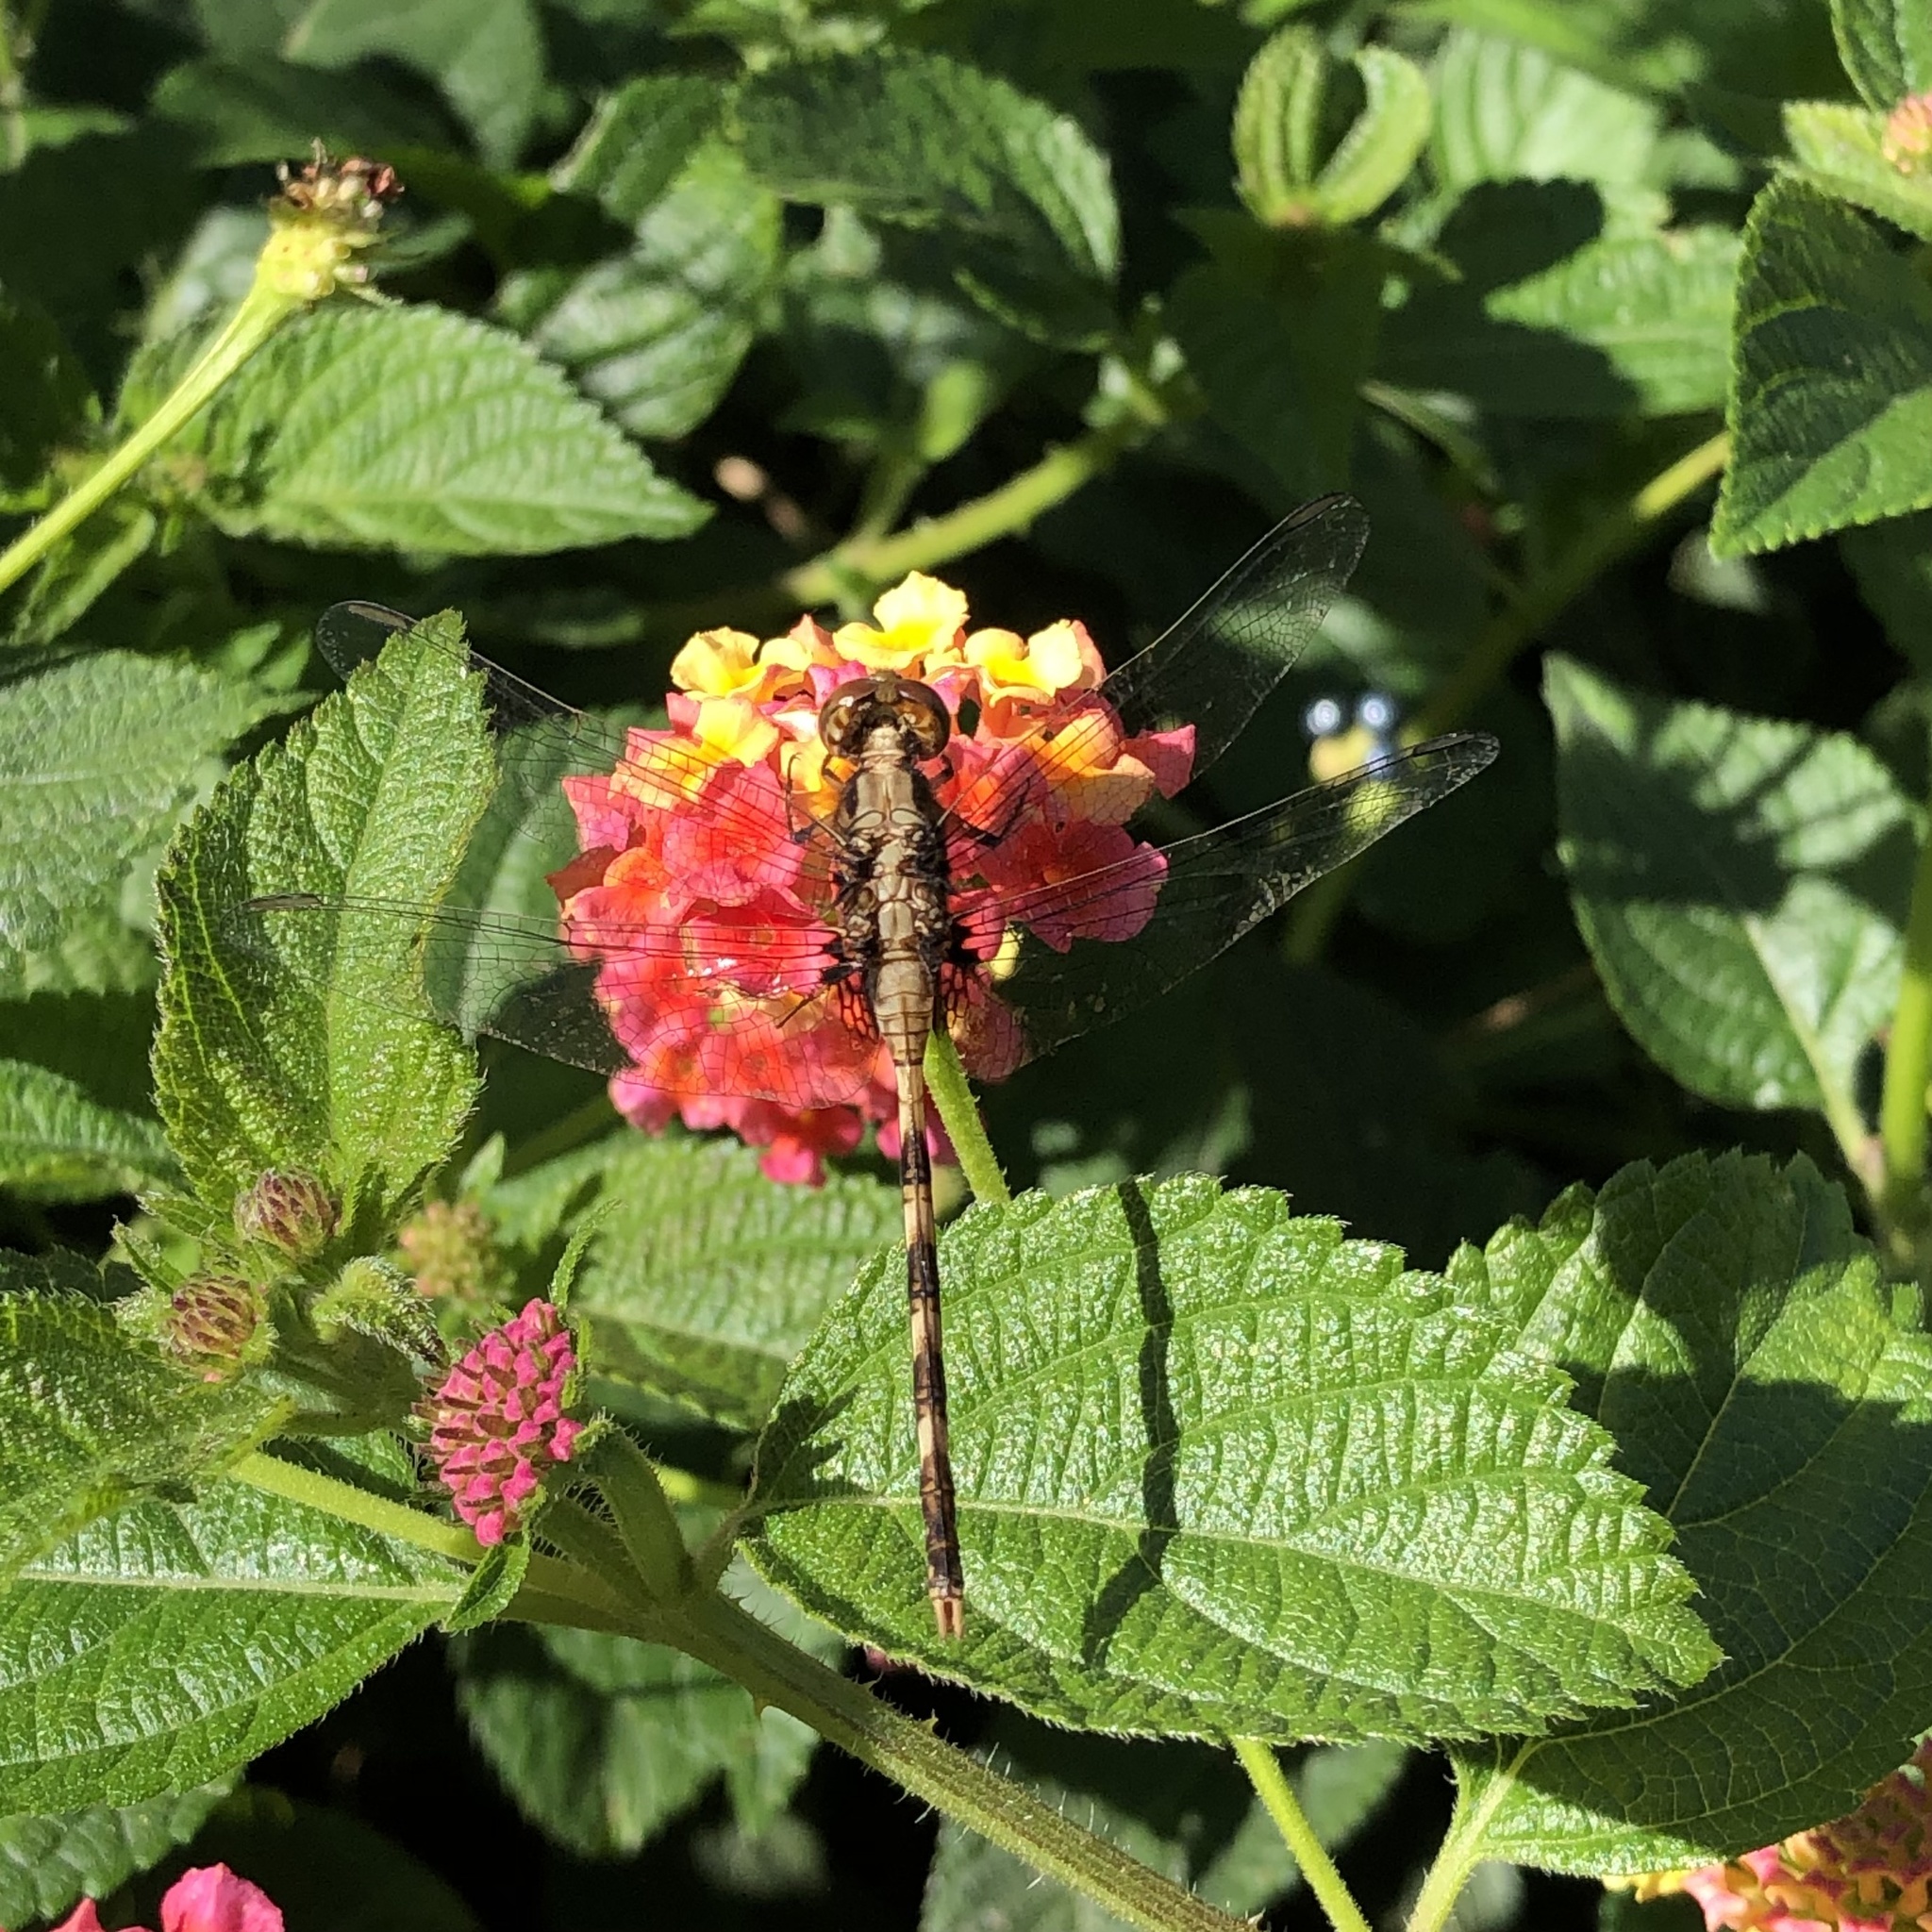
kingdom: Animalia
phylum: Arthropoda
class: Insecta
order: Odonata
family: Libellulidae
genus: Erythemis
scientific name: Erythemis plebeja
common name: Pin-tailed pondhawk
